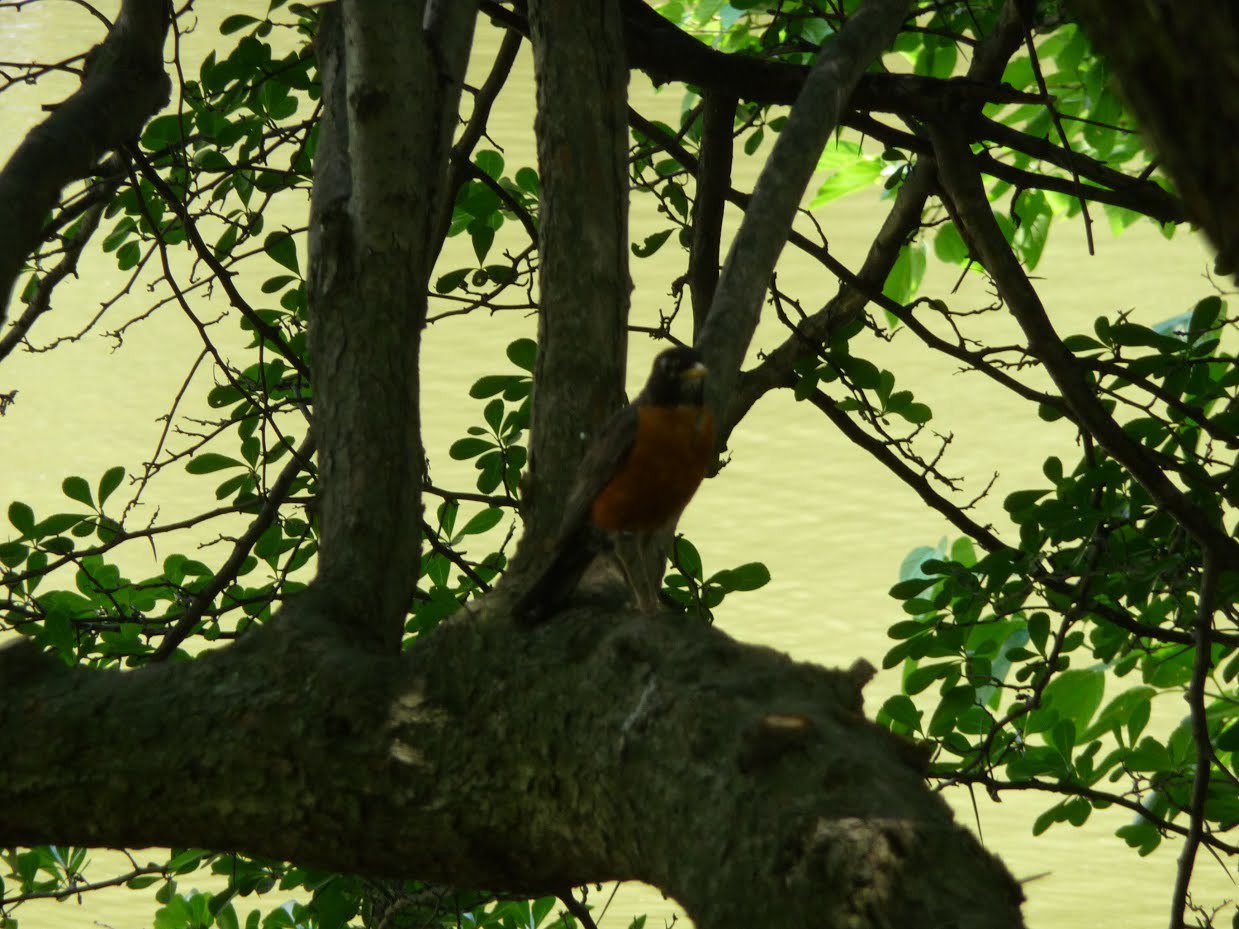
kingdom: Animalia
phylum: Chordata
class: Aves
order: Passeriformes
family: Turdidae
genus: Turdus
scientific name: Turdus migratorius
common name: American robin
